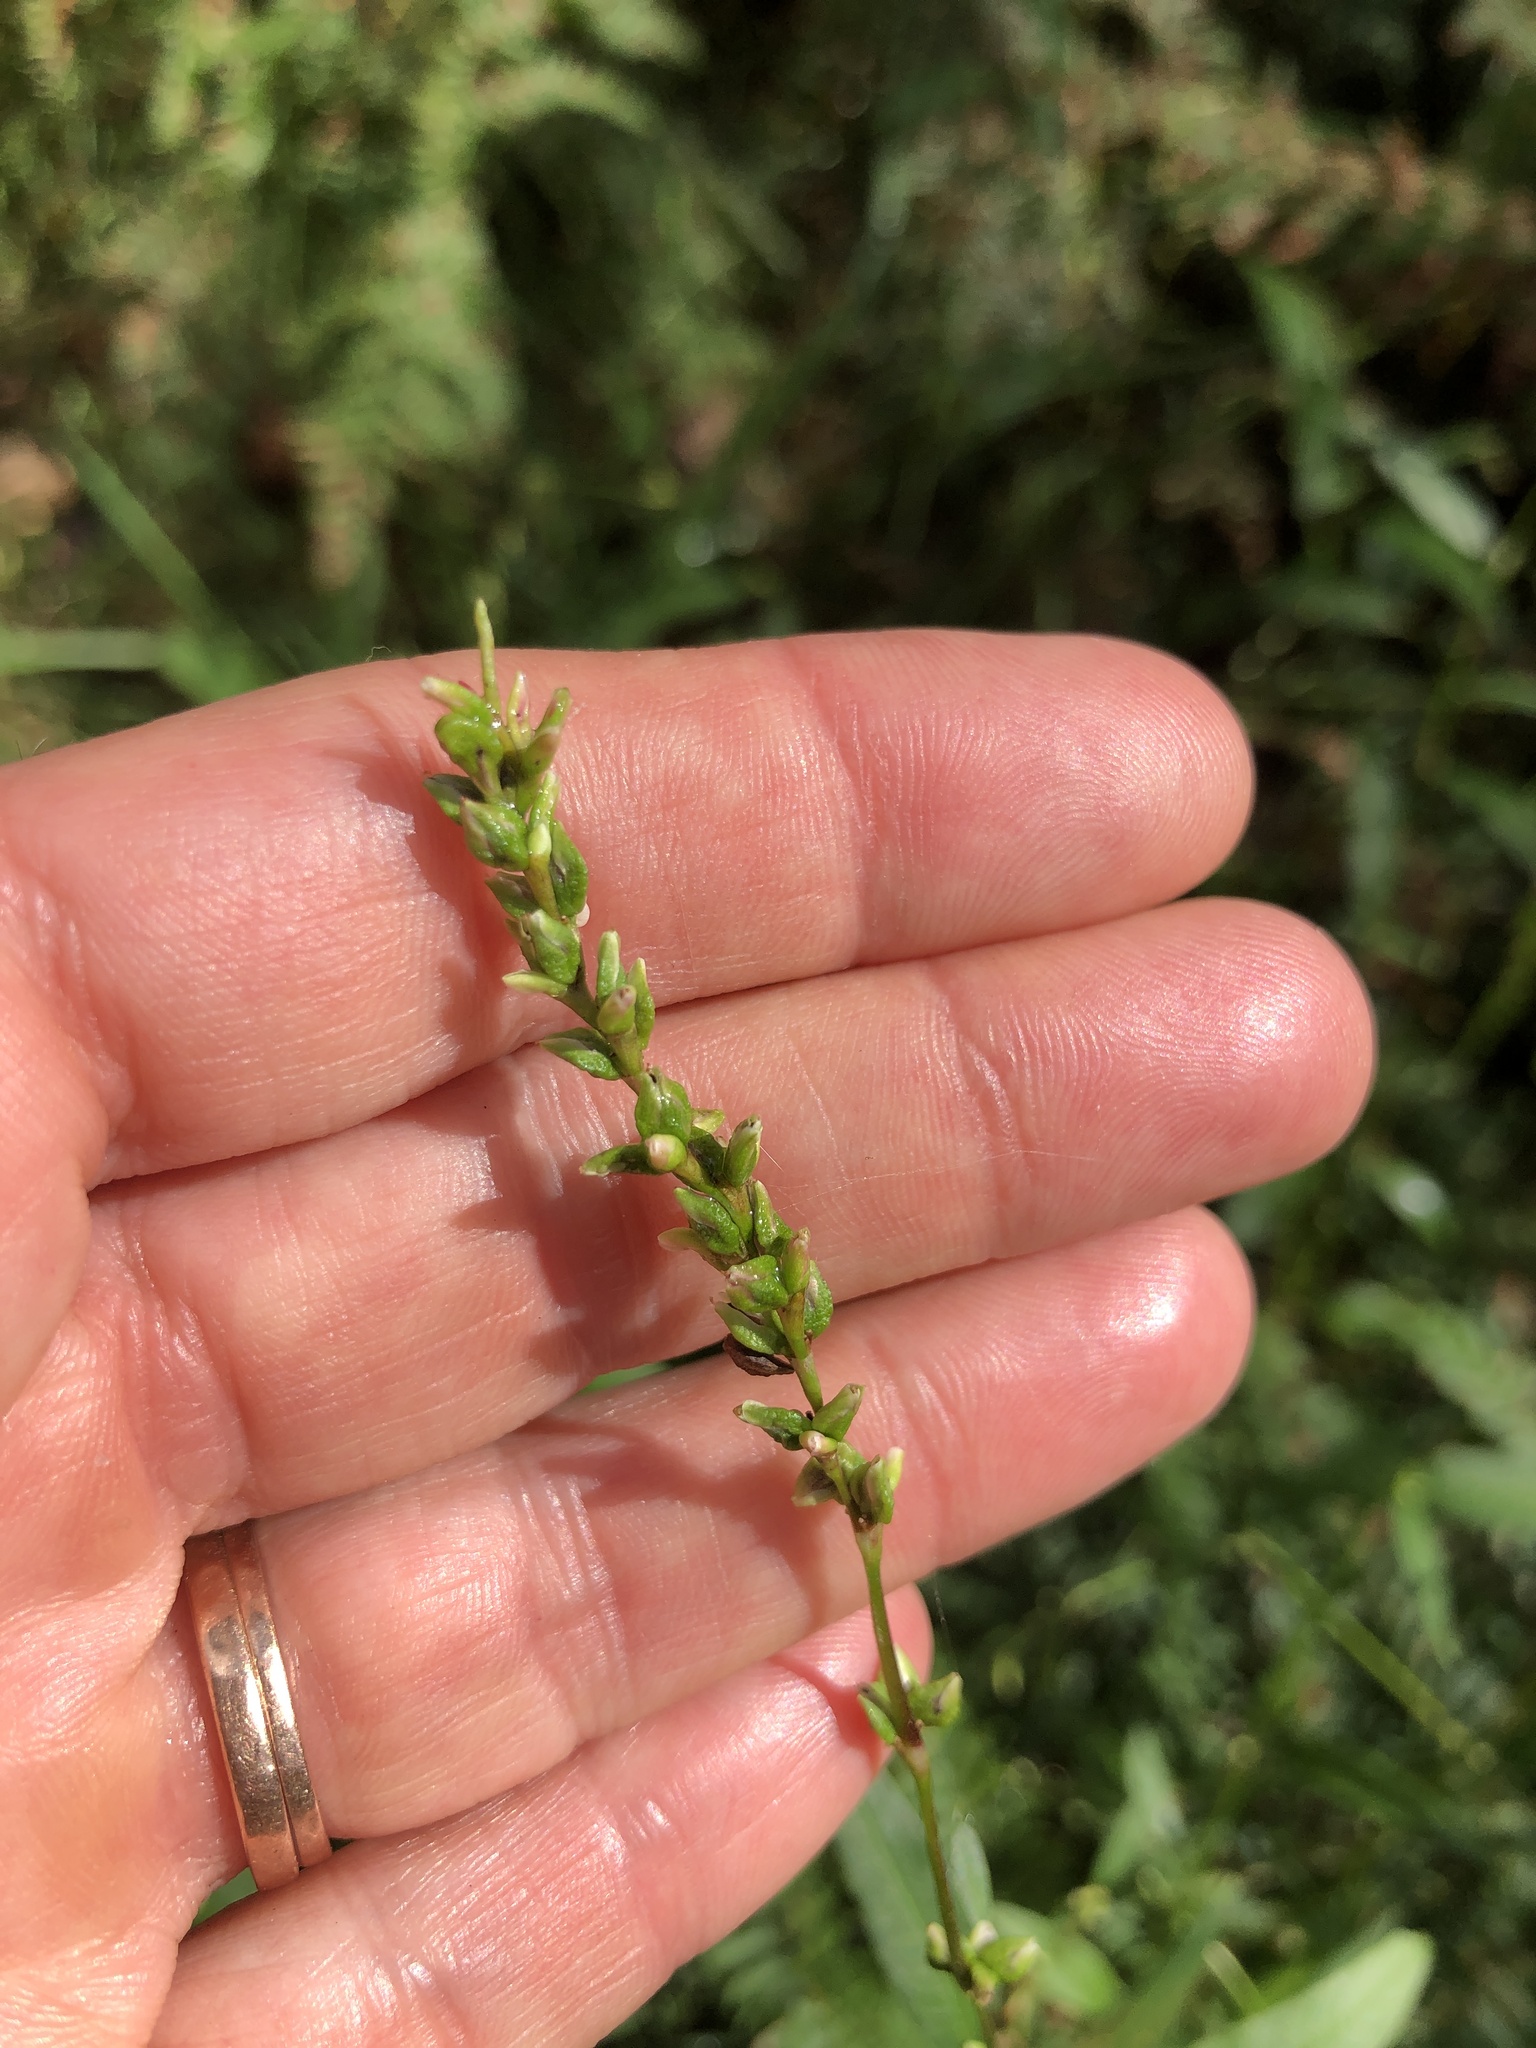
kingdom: Plantae
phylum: Tracheophyta
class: Magnoliopsida
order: Caryophyllales
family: Polygonaceae
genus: Persicaria
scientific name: Persicaria hydropiper
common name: Water-pepper
